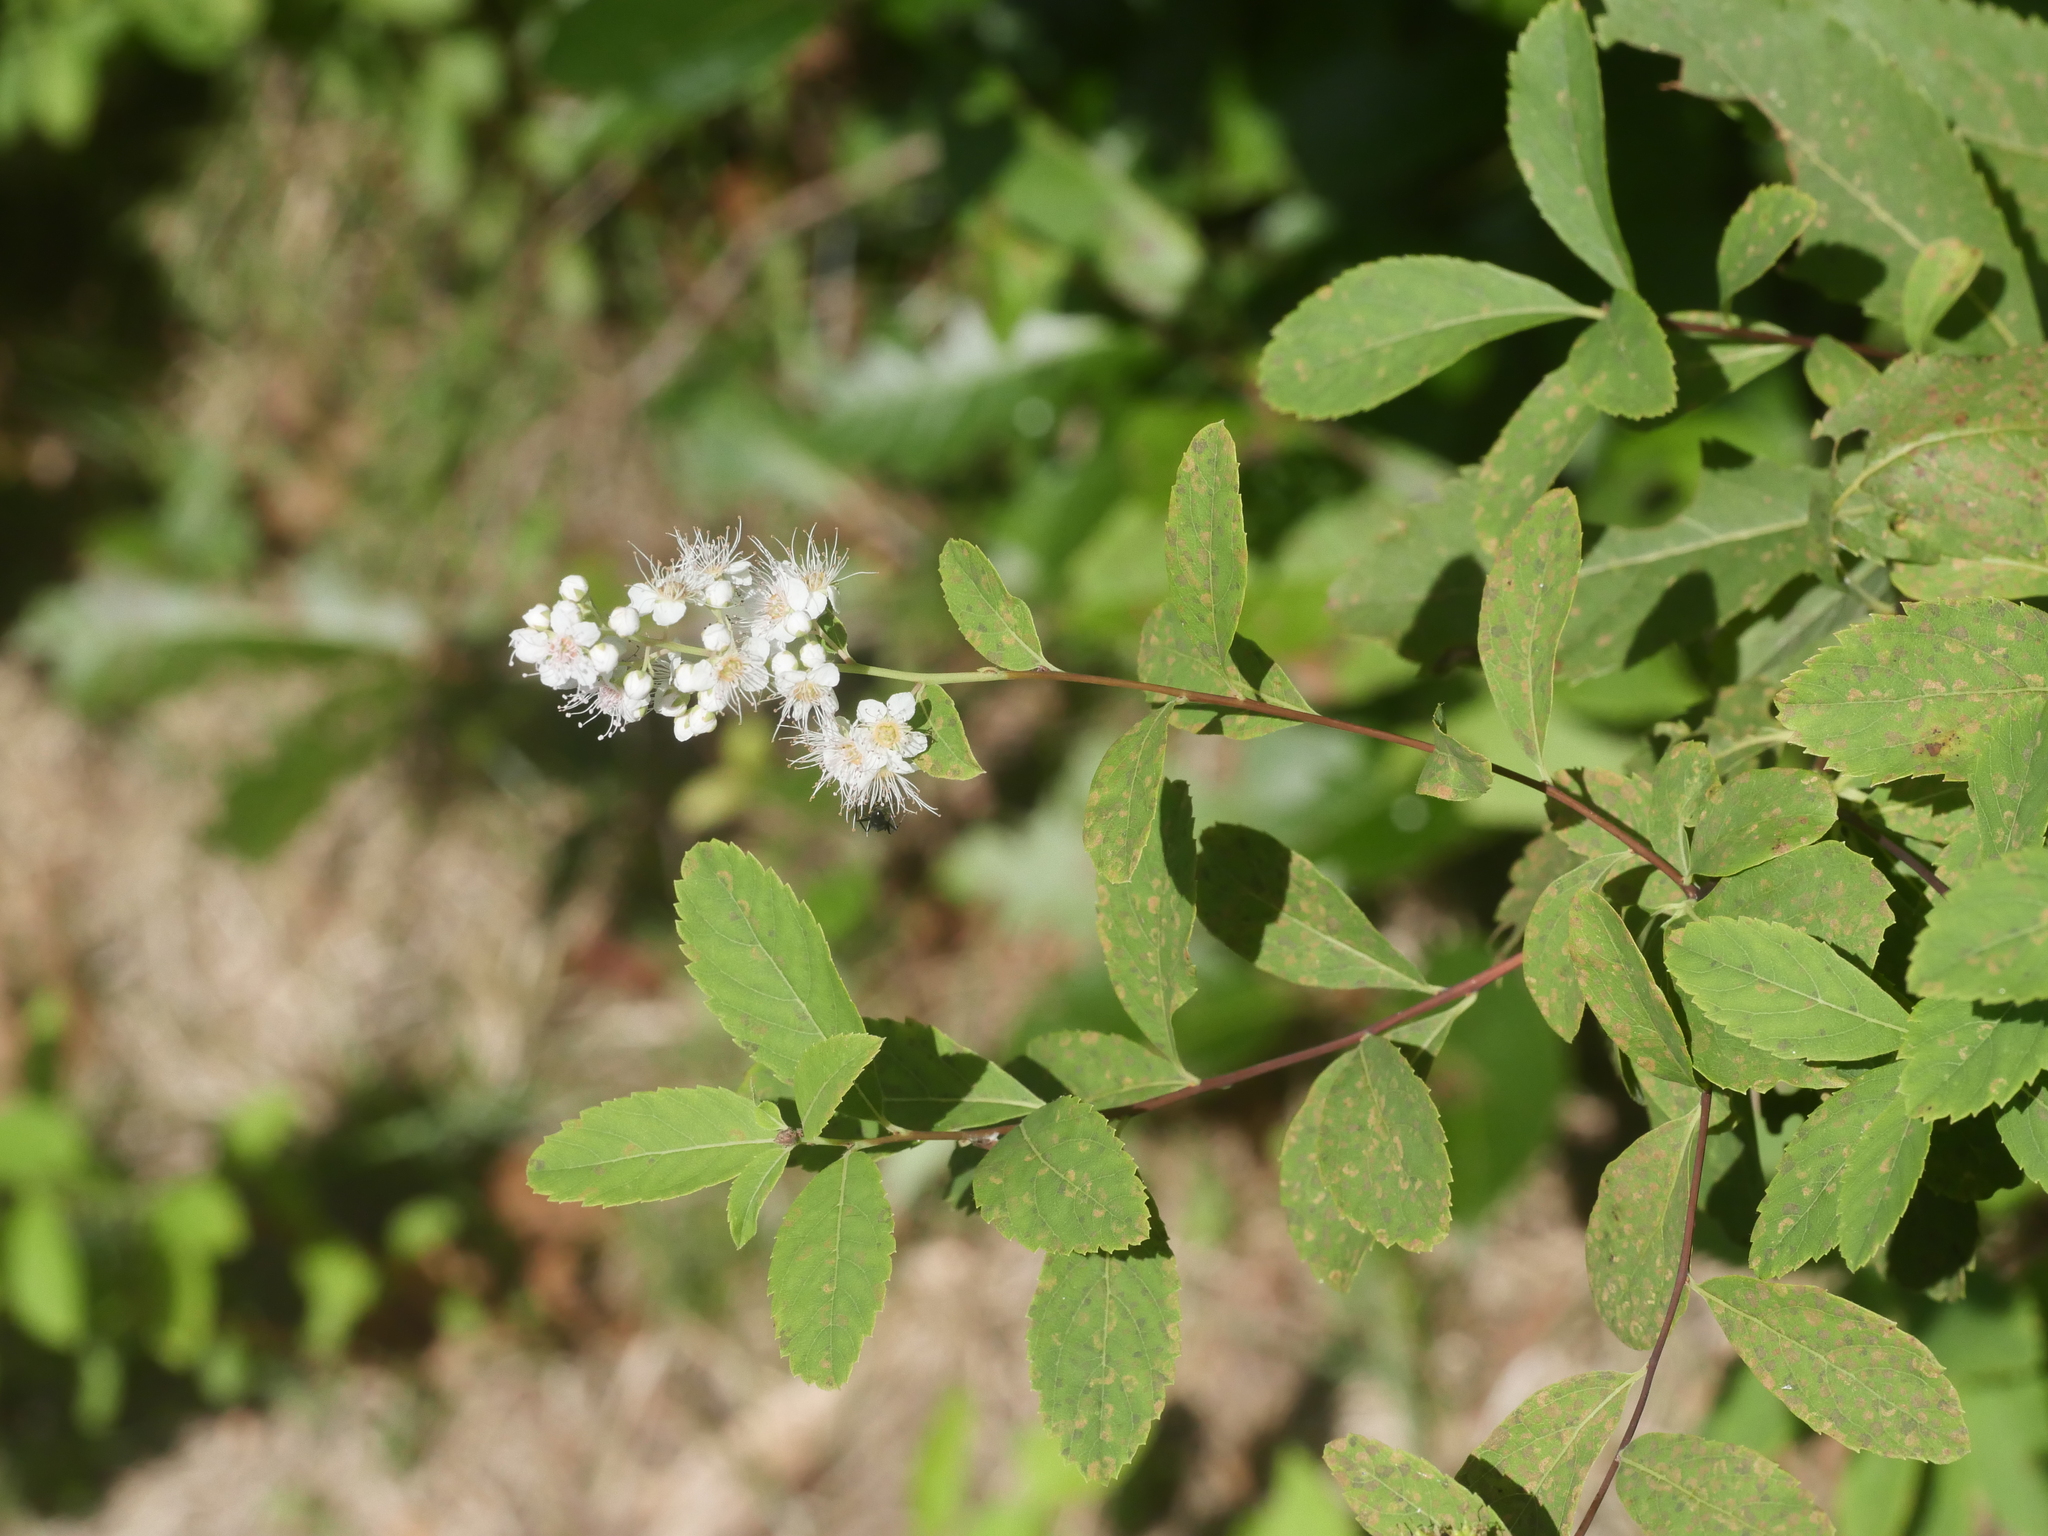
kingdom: Plantae
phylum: Tracheophyta
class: Magnoliopsida
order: Rosales
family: Rosaceae
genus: Spiraea
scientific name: Spiraea alba
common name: Pale bridewort
